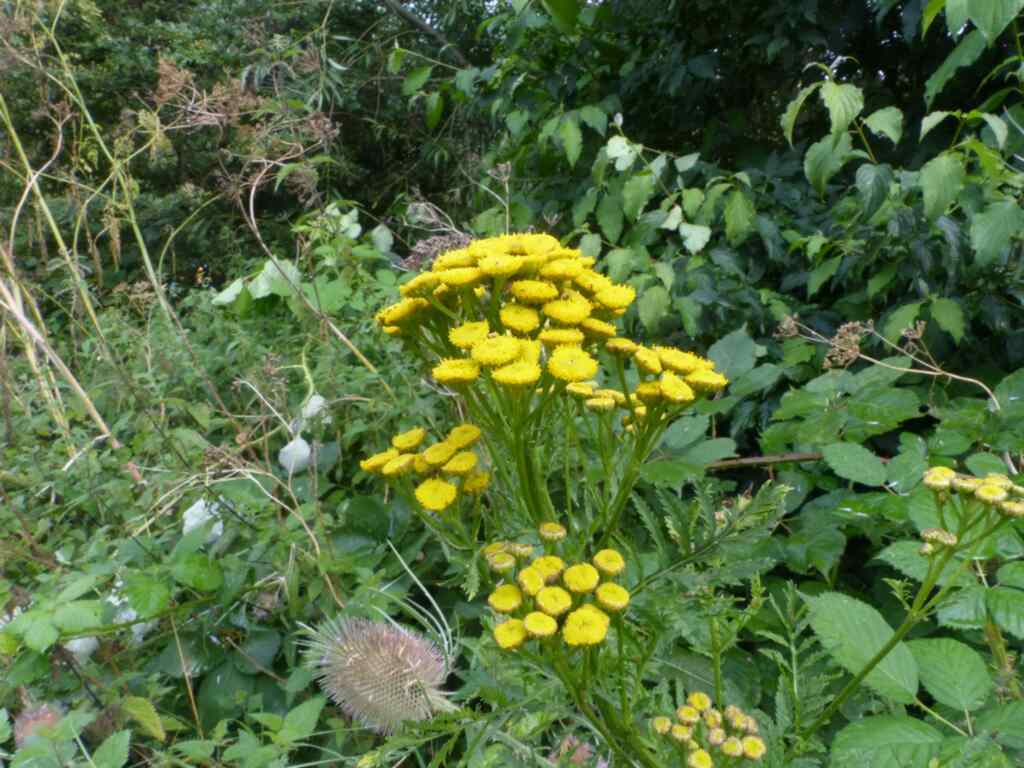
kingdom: Plantae
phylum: Tracheophyta
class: Magnoliopsida
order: Asterales
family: Asteraceae
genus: Tanacetum
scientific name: Tanacetum vulgare
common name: Common tansy
